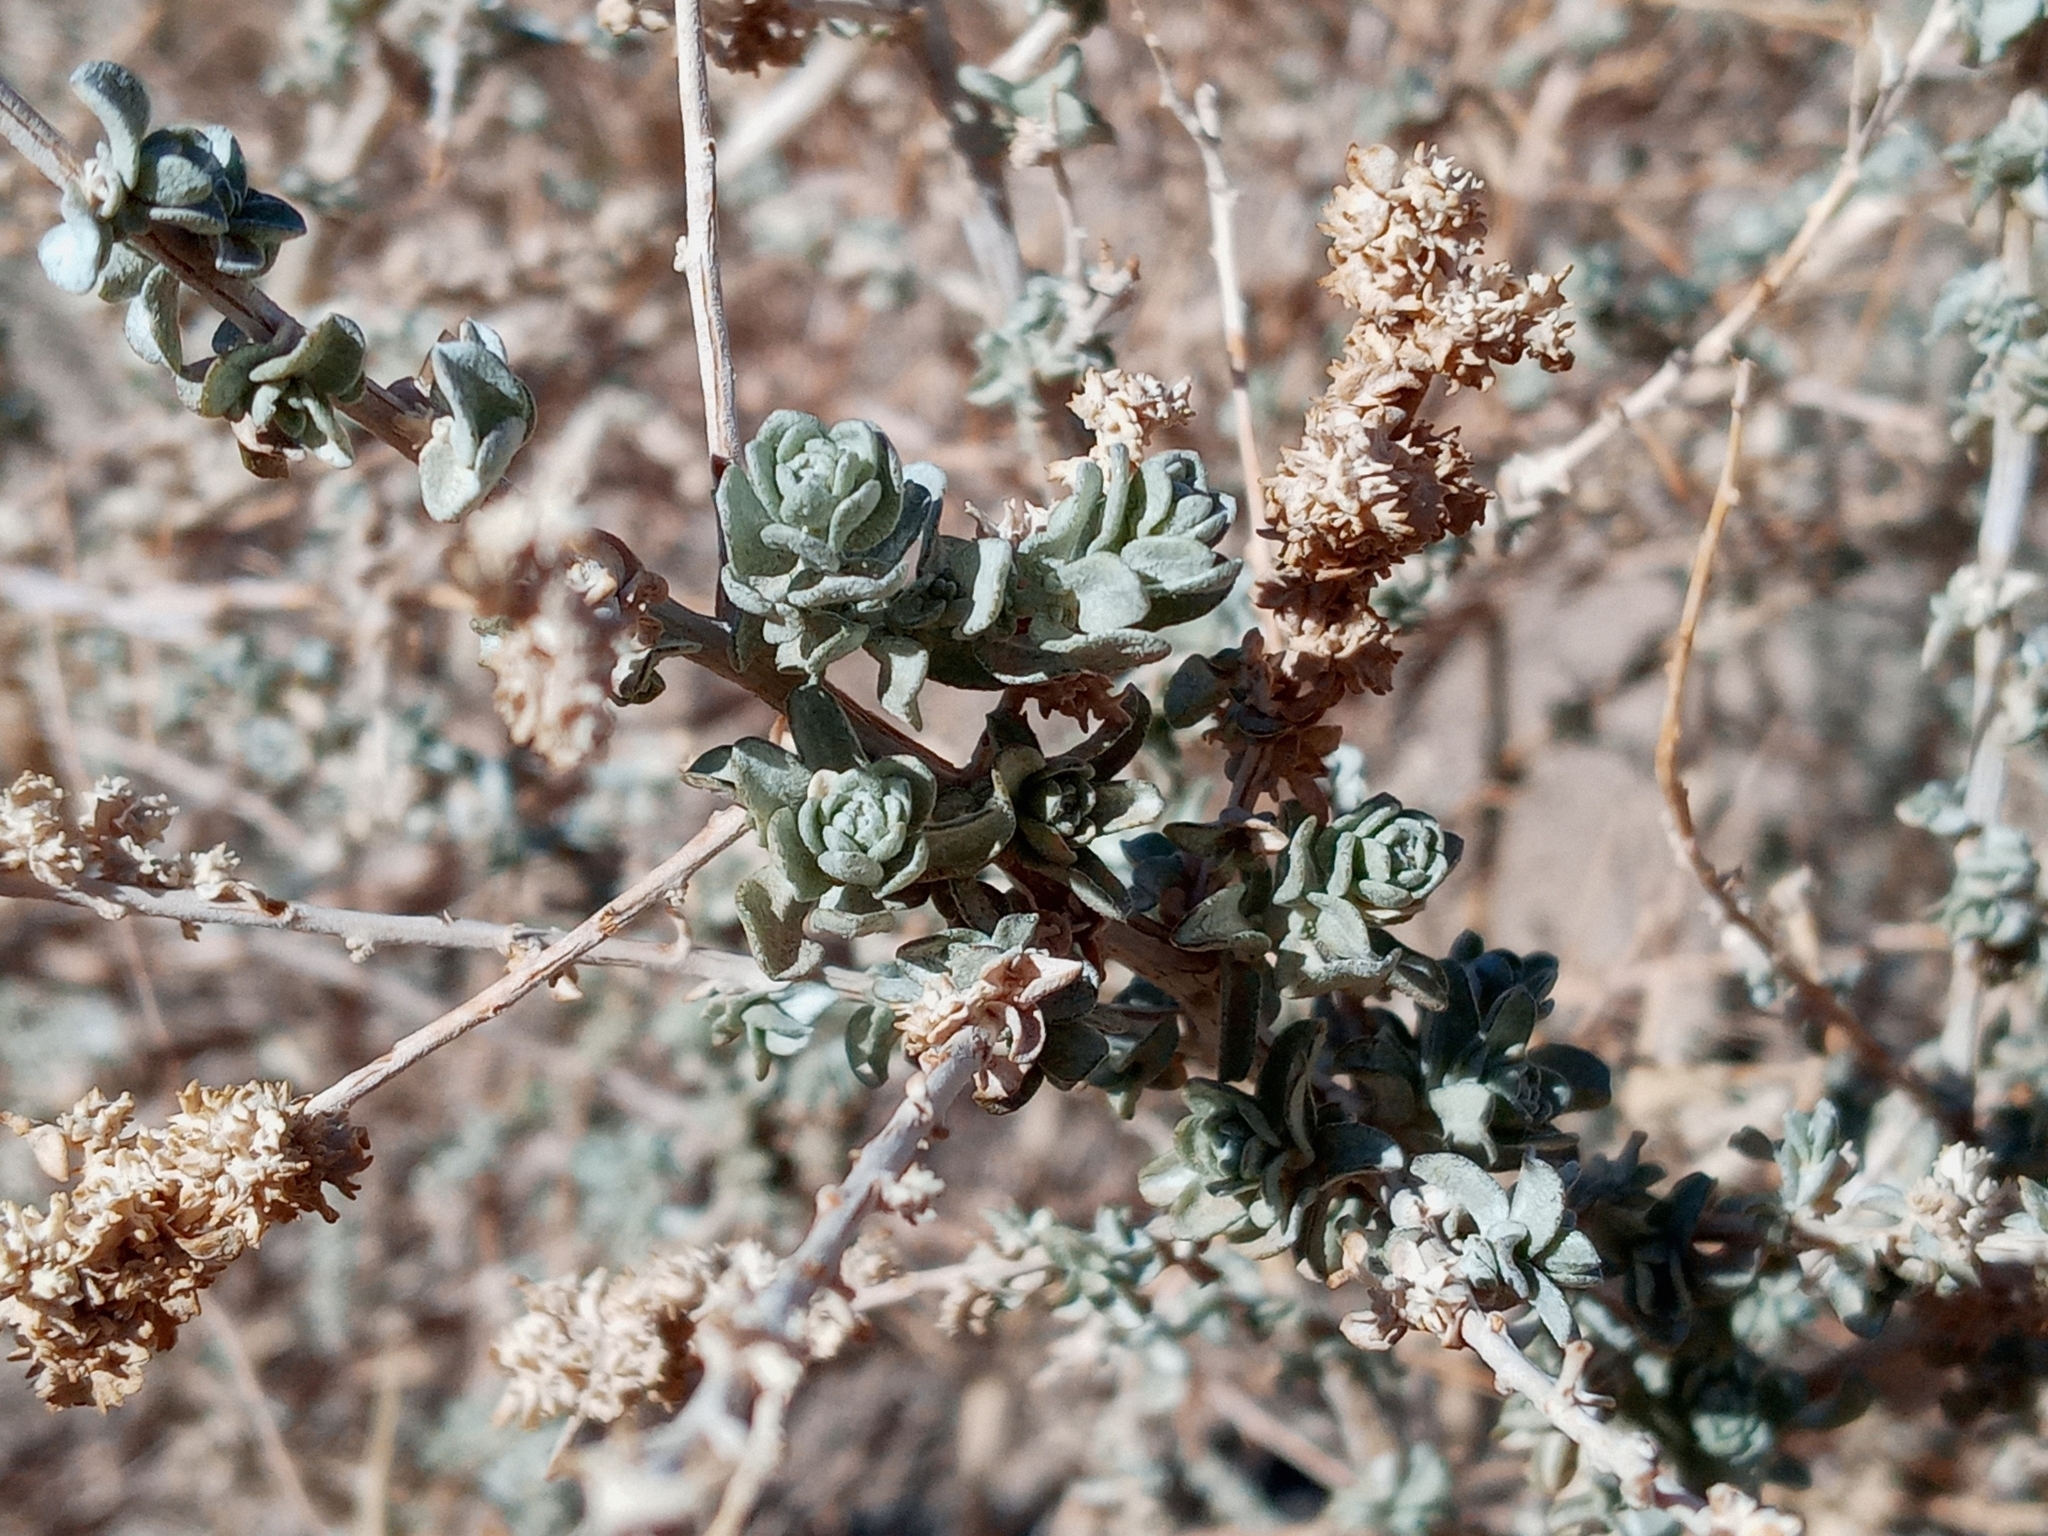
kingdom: Plantae
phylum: Tracheophyta
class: Magnoliopsida
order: Caryophyllales
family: Amaranthaceae
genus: Atriplex
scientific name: Atriplex polycarpa
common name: Desert saltbush
